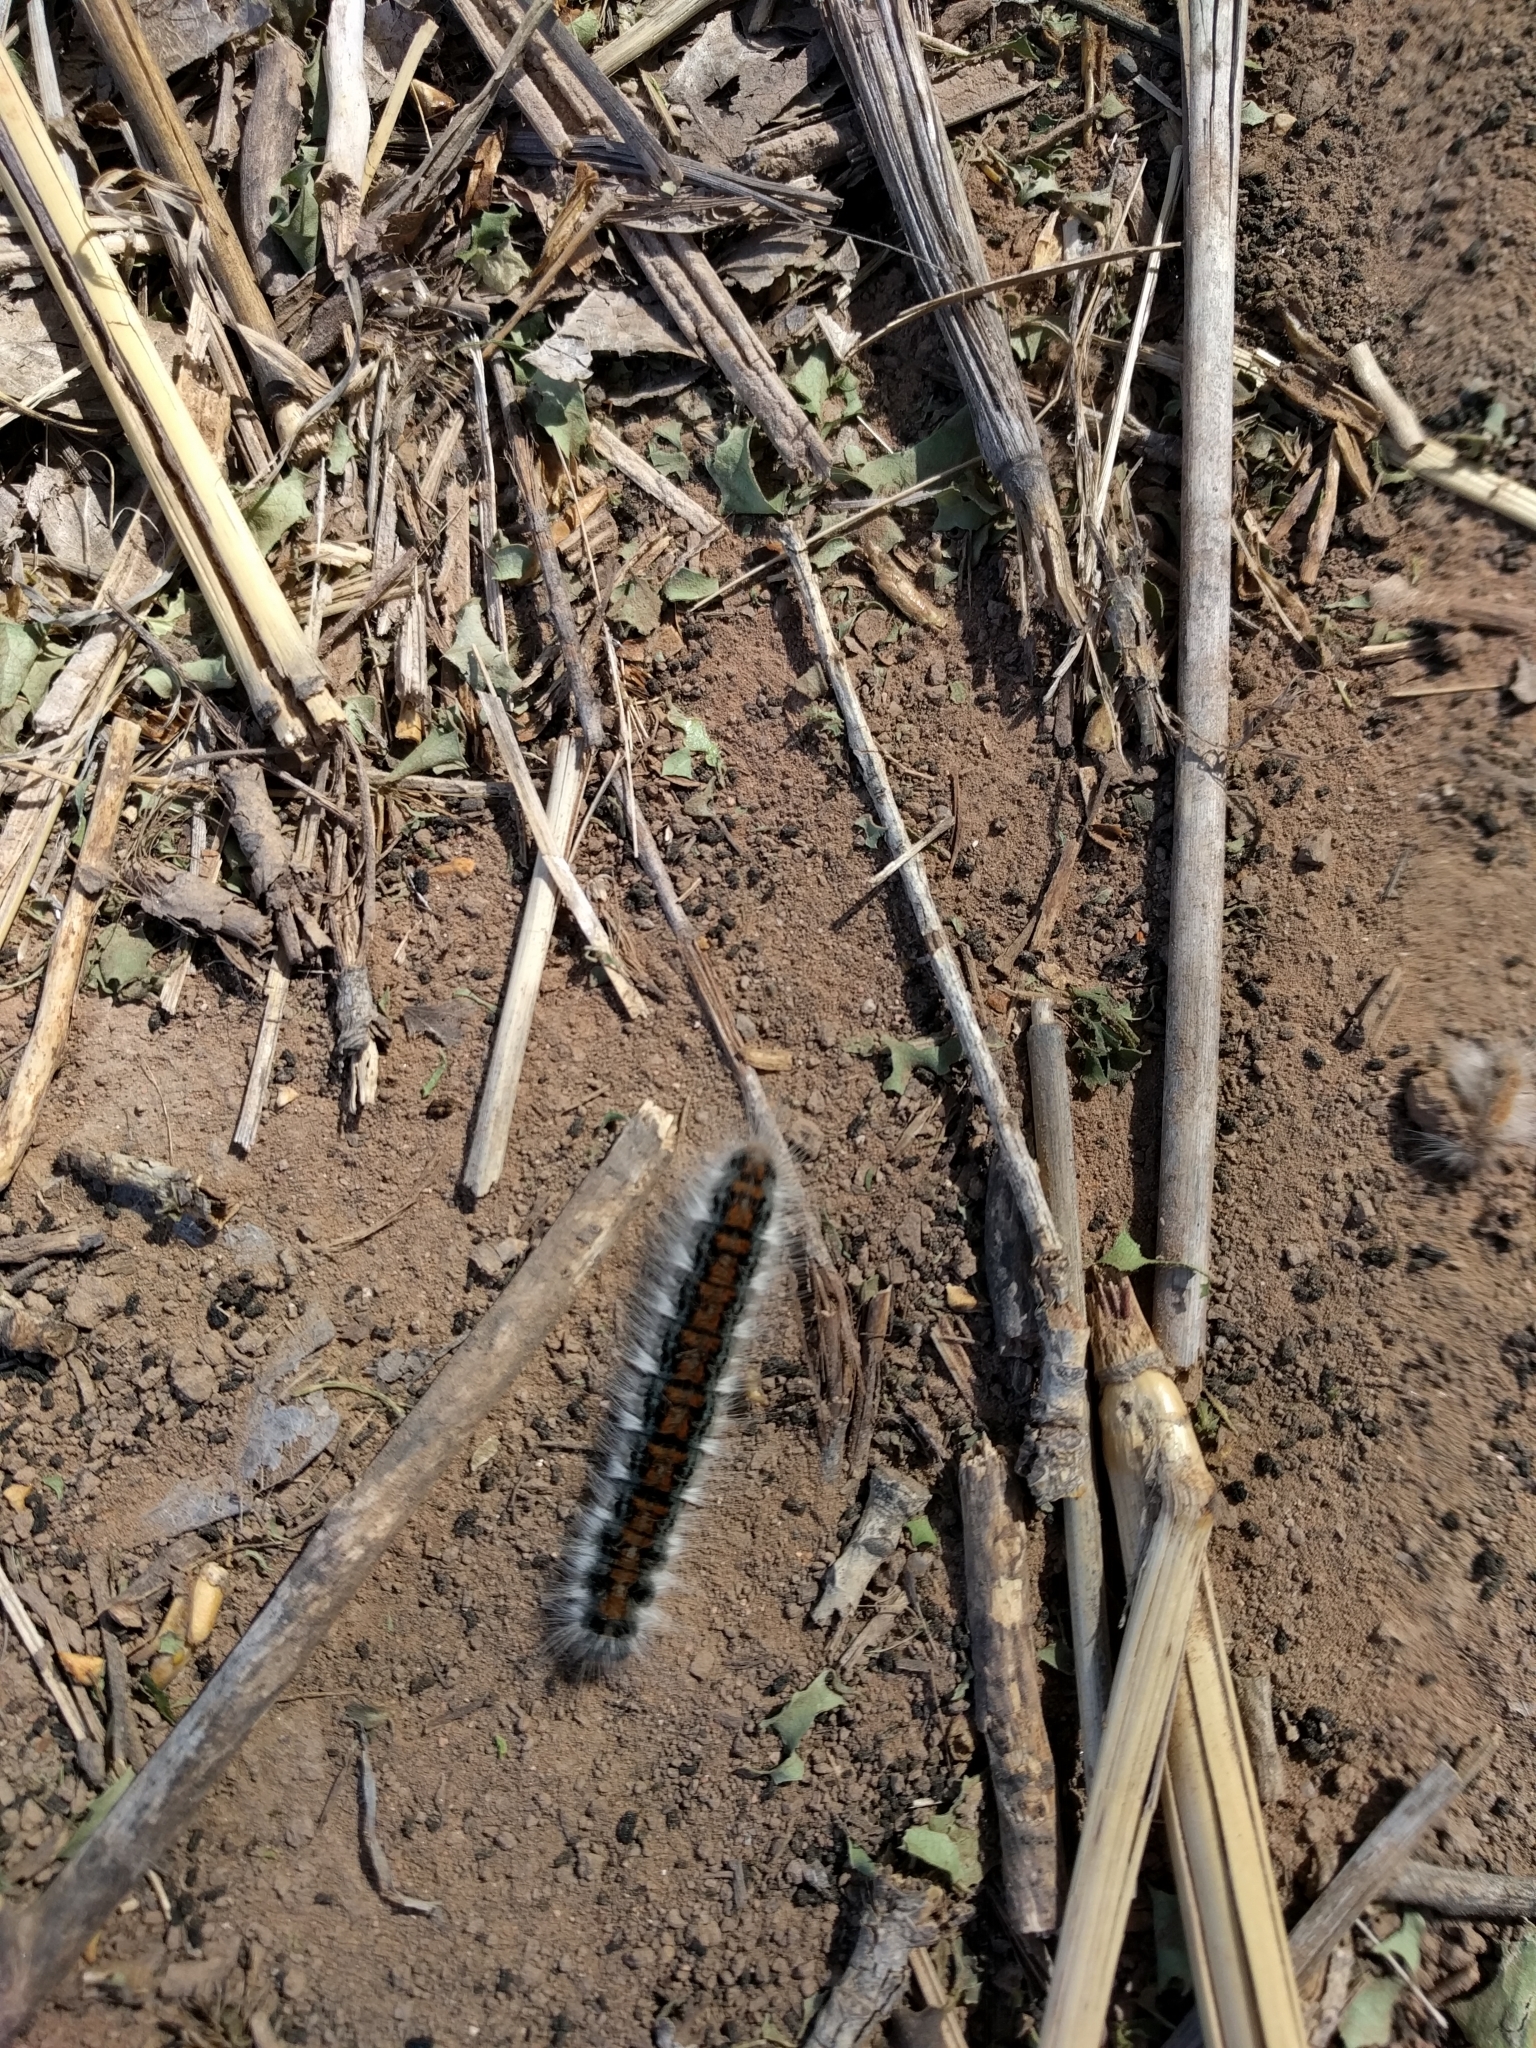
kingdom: Animalia
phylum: Arthropoda
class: Insecta
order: Lepidoptera
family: Lasiocampidae
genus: Malacosoma
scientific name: Malacosoma incurva
